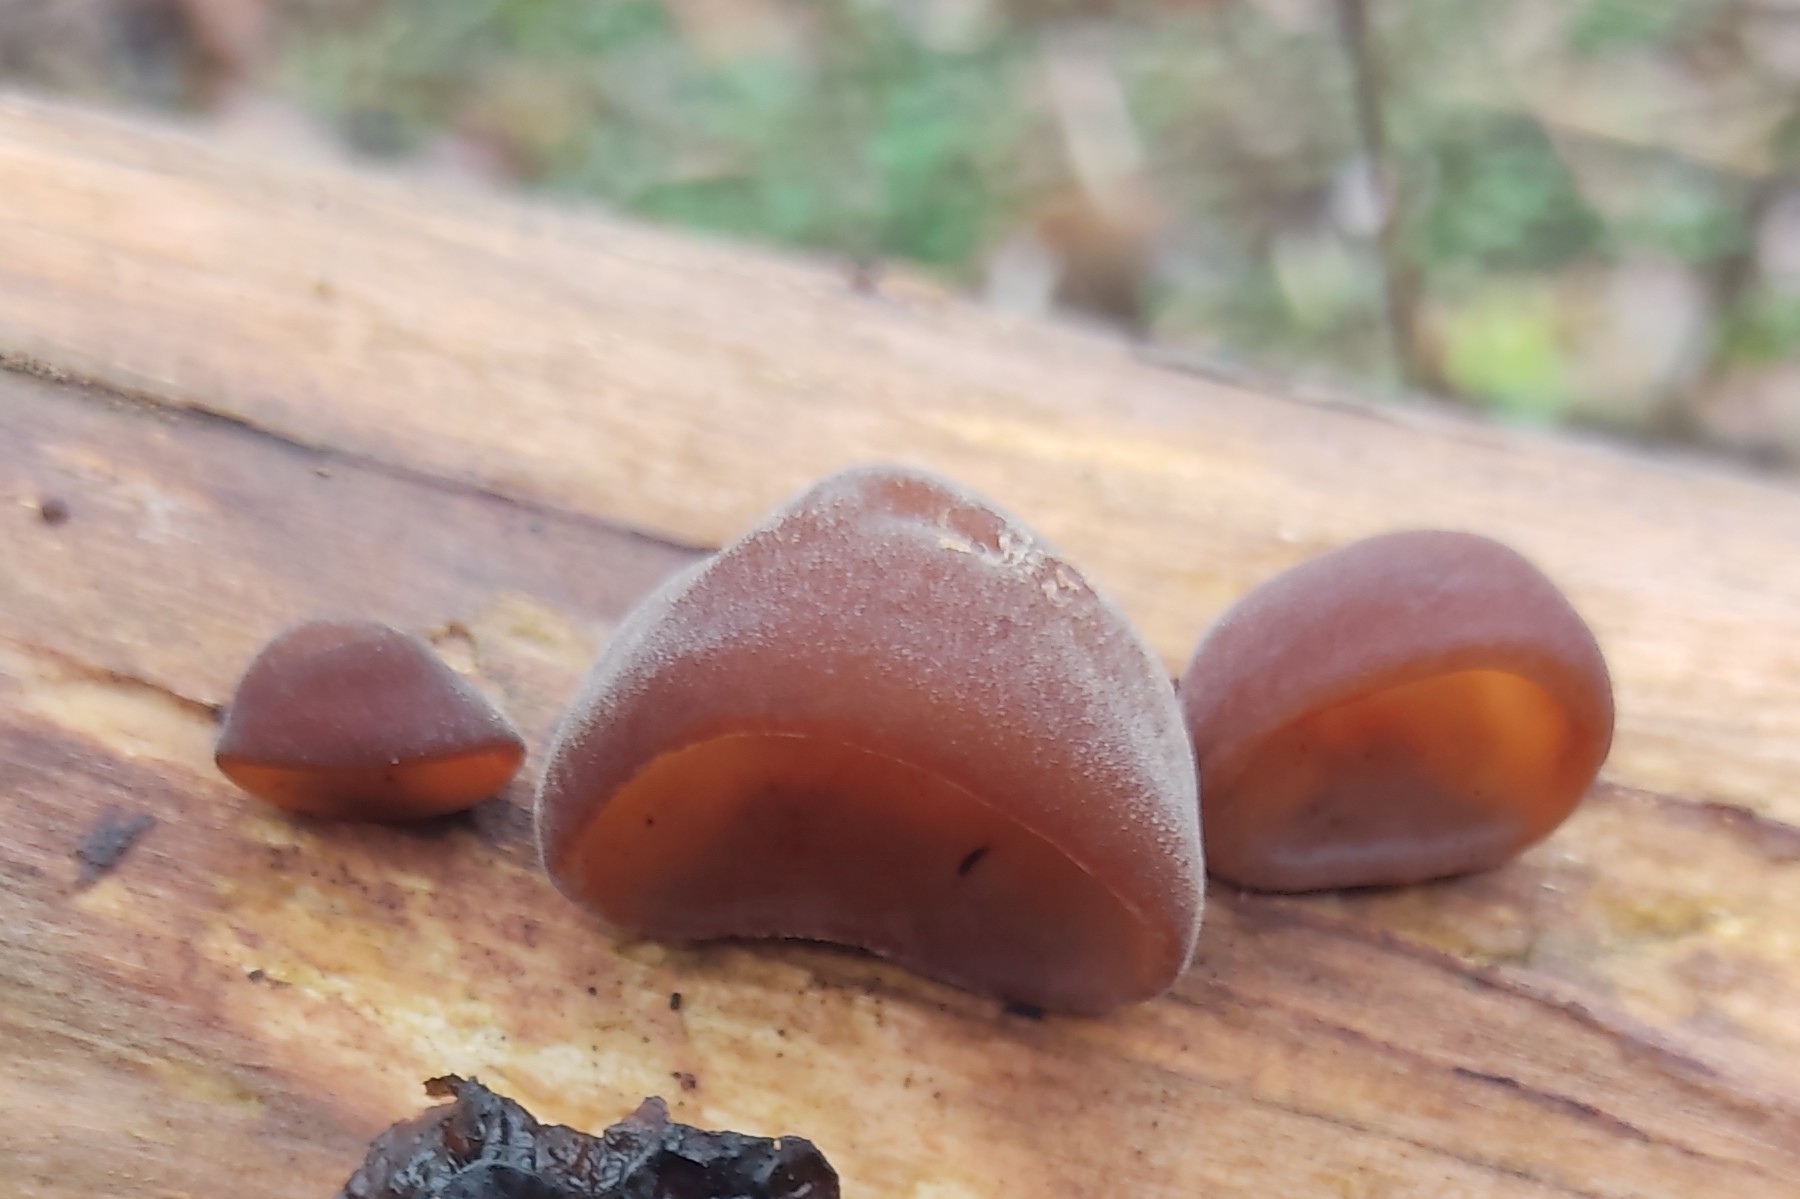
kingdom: Fungi
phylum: Basidiomycota
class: Agaricomycetes
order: Auriculariales
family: Auriculariaceae
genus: Auricularia
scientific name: Auricularia auricula-judae
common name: Jelly ear
